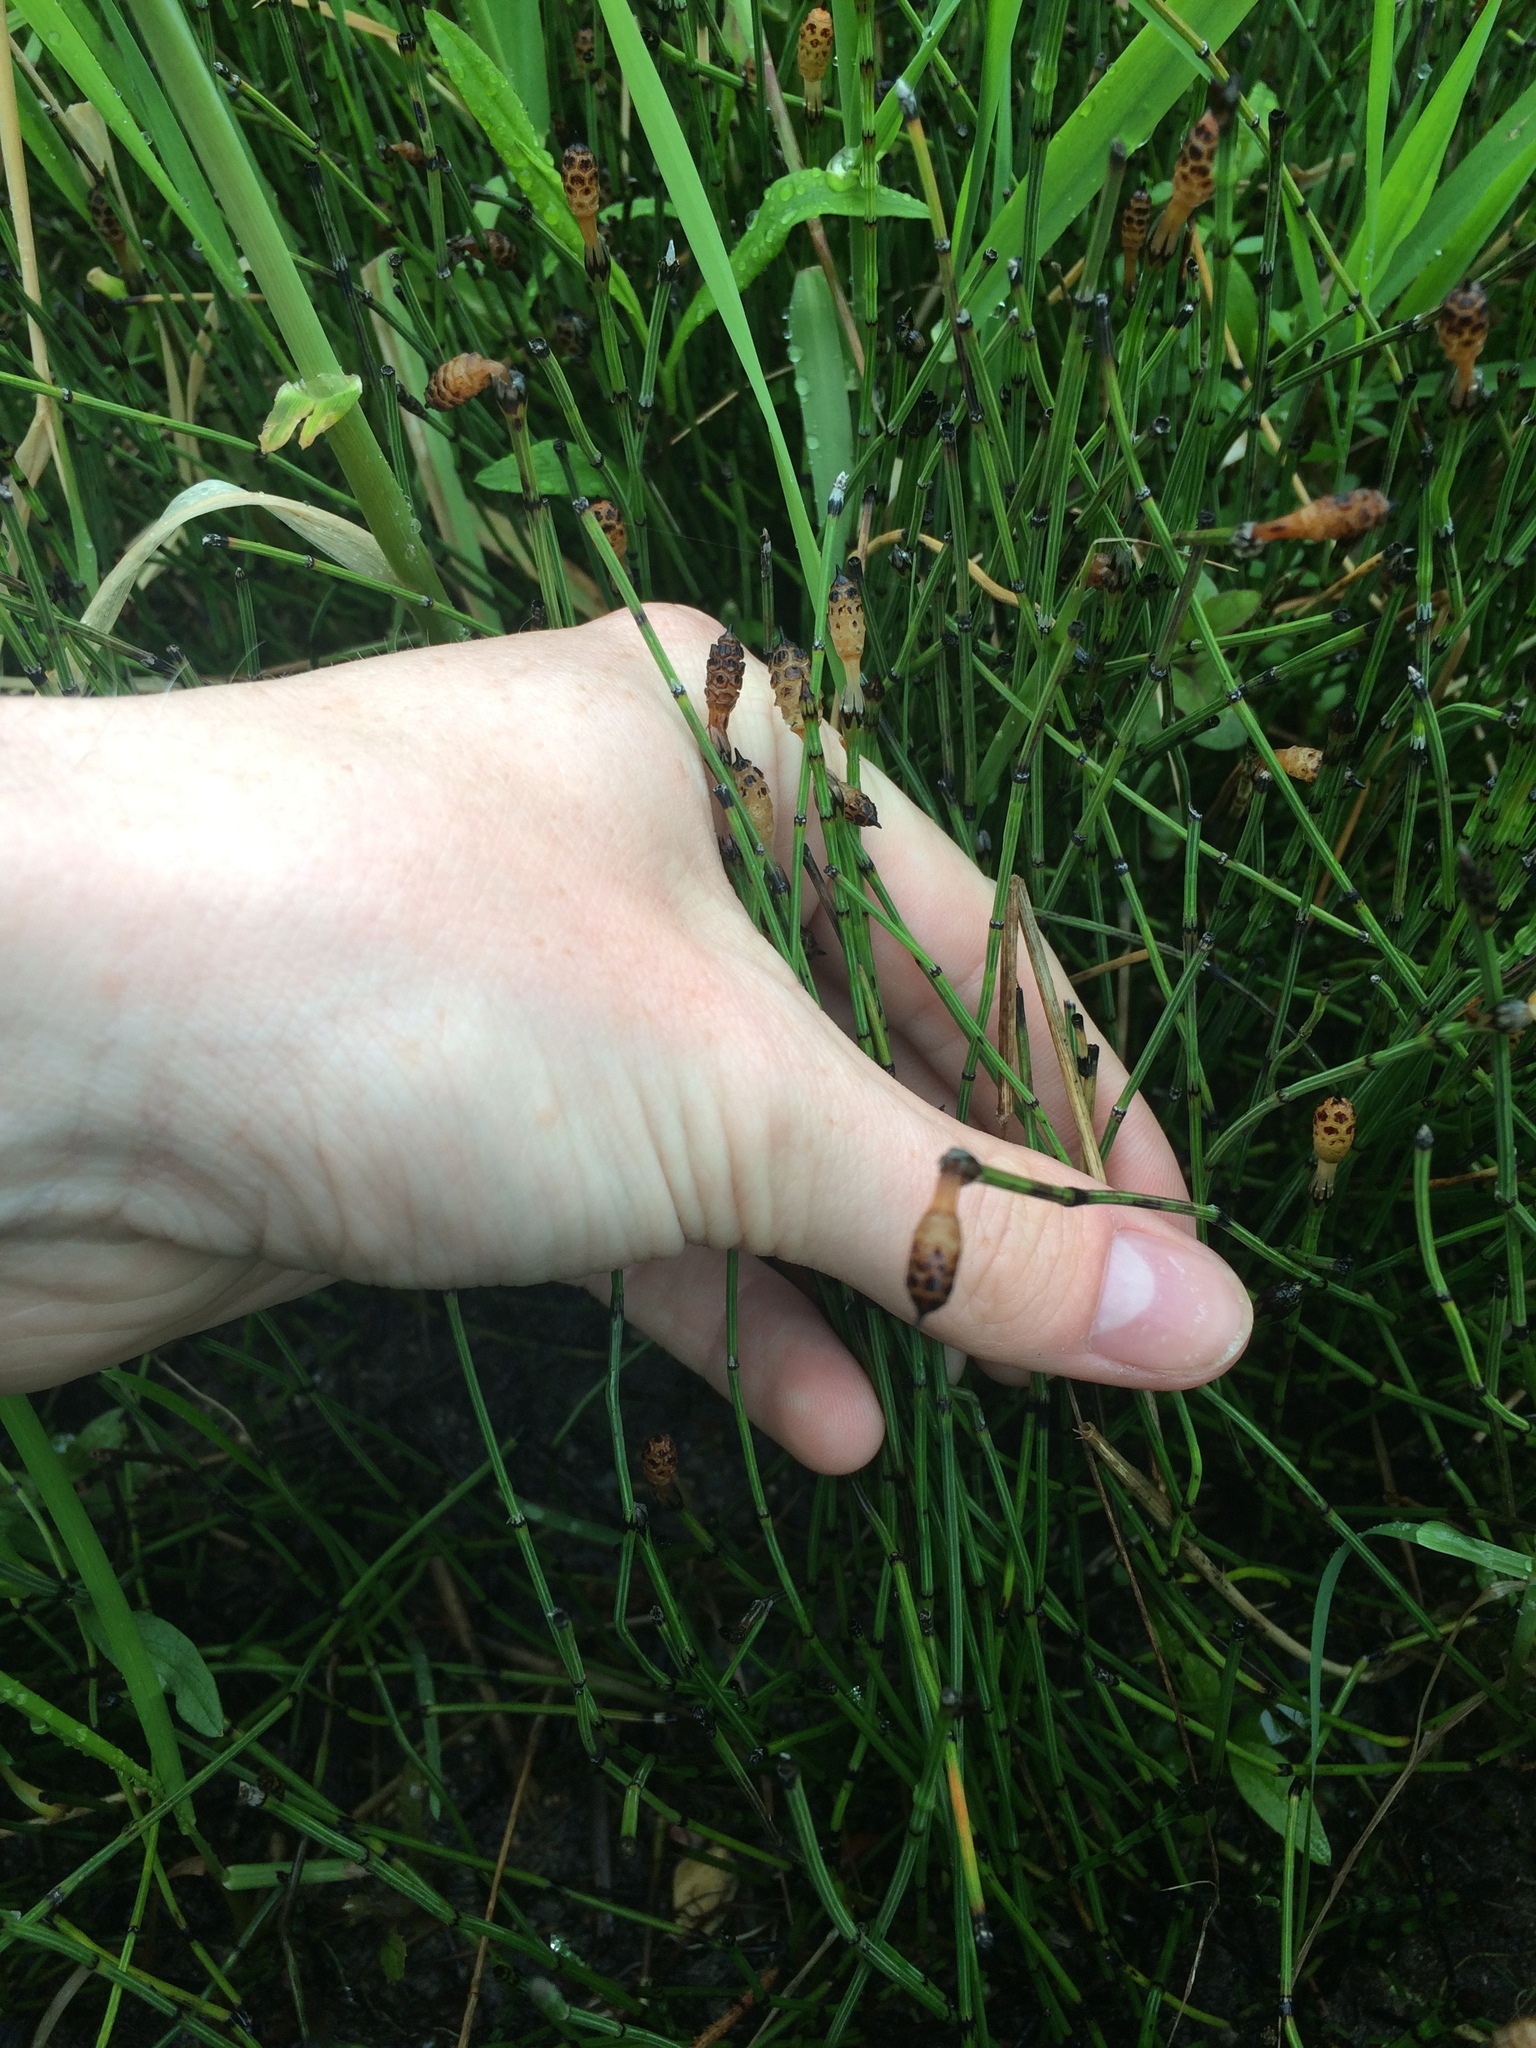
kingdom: Plantae
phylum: Tracheophyta
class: Polypodiopsida
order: Equisetales
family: Equisetaceae
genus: Equisetum
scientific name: Equisetum variegatum
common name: Variegated horsetail
